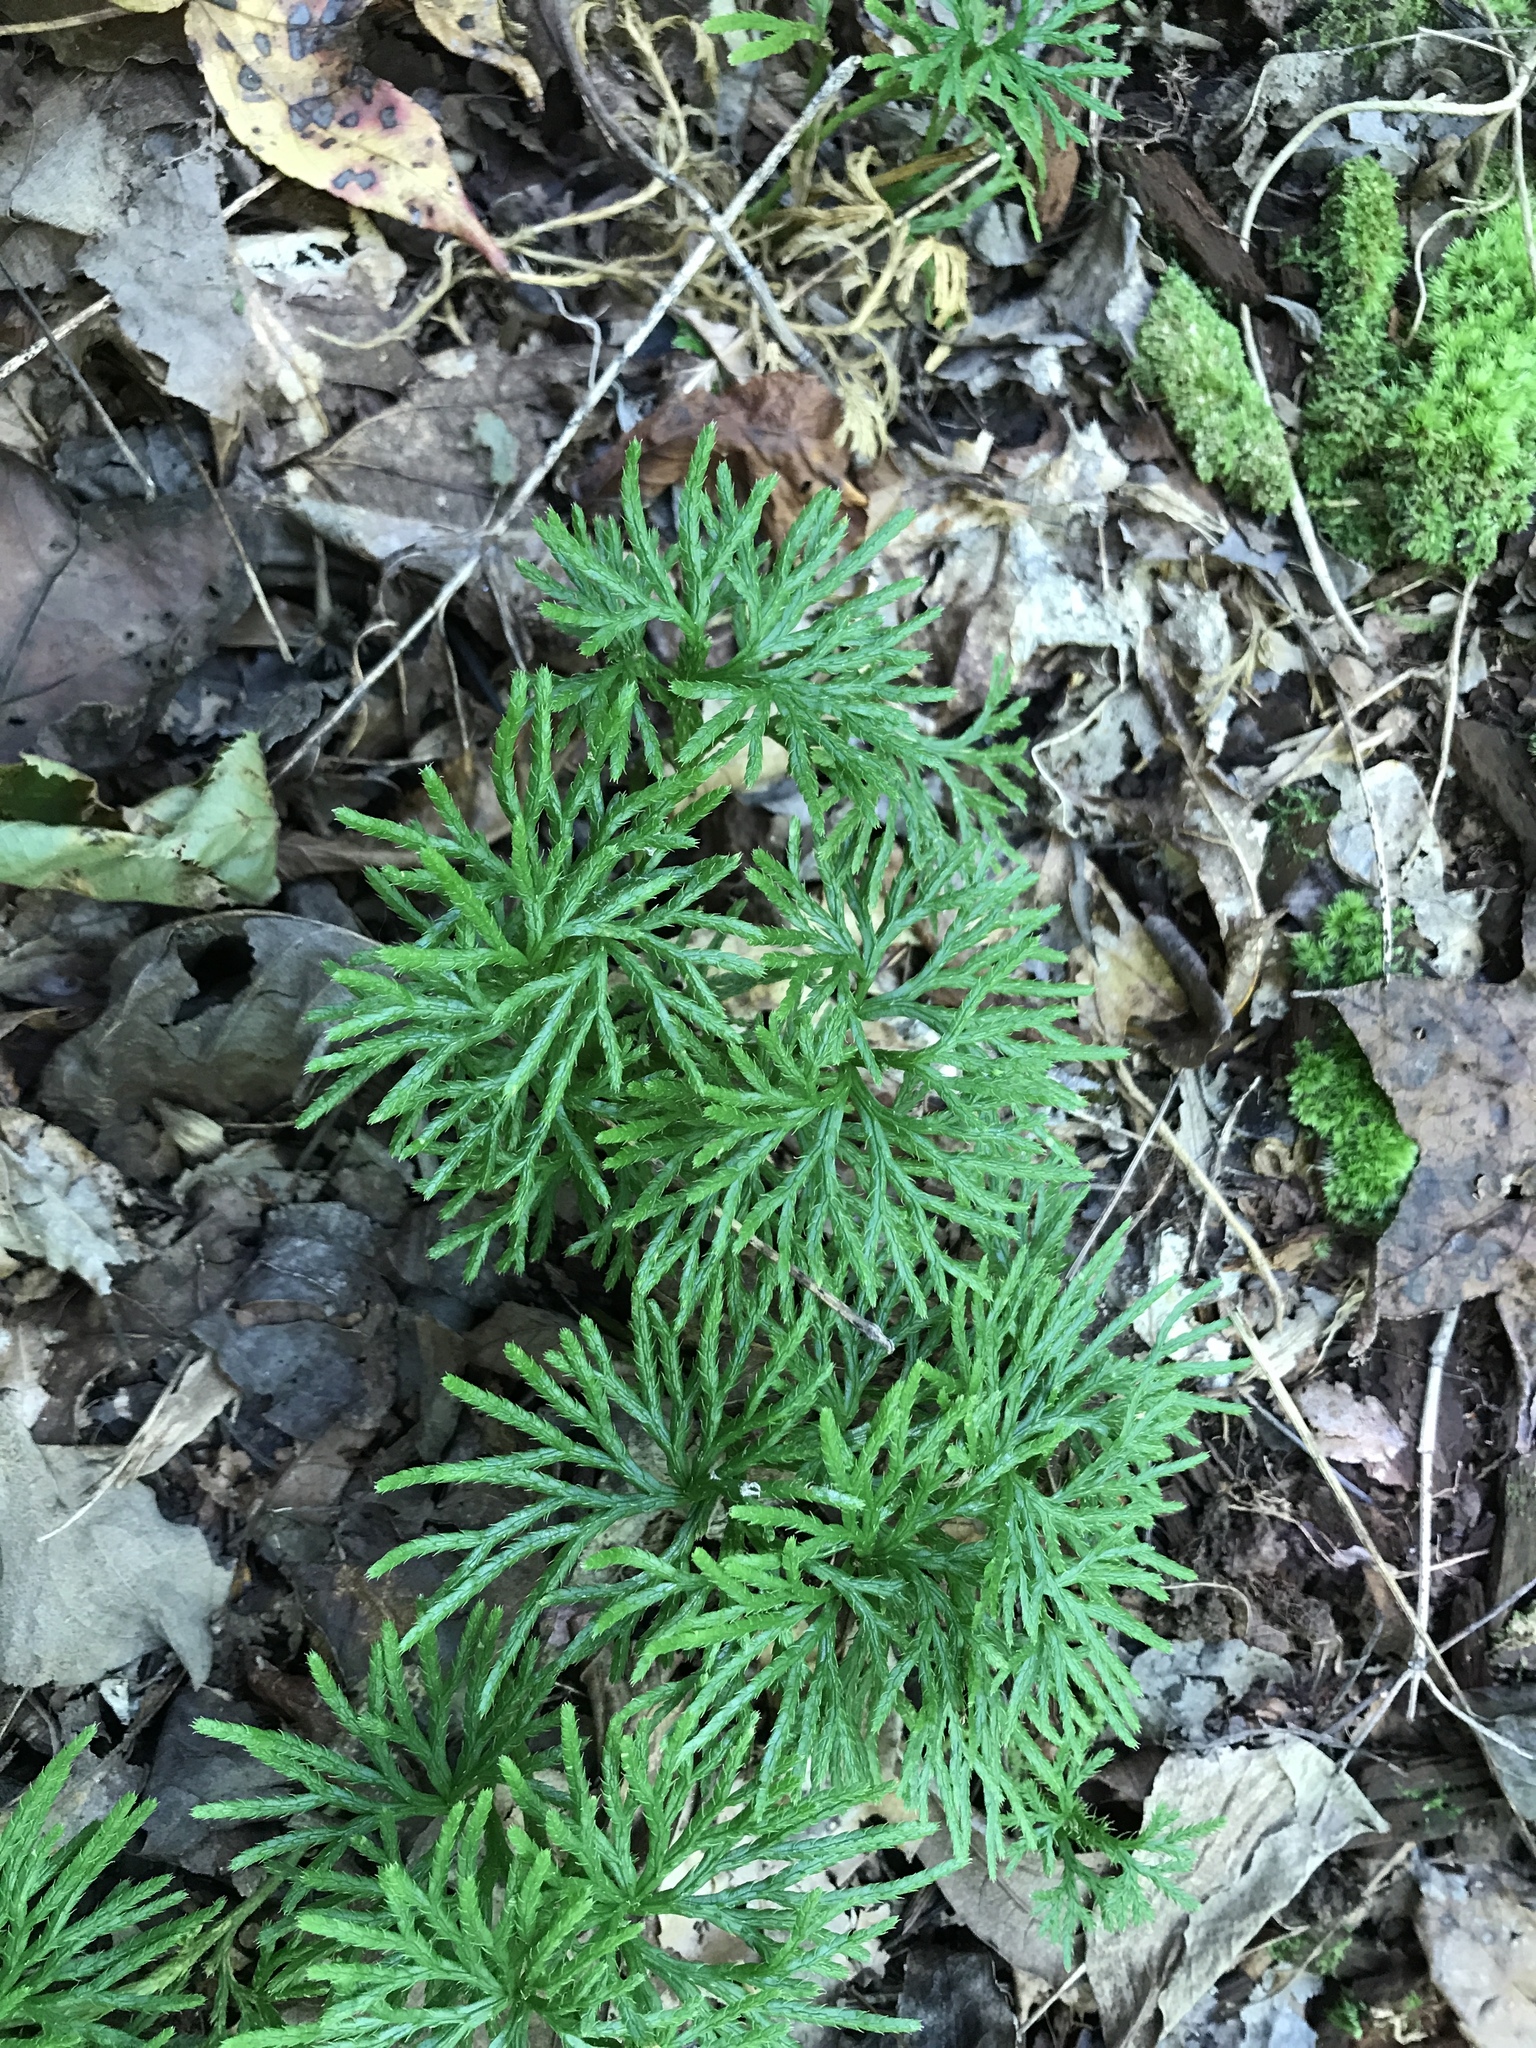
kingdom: Plantae
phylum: Tracheophyta
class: Lycopodiopsida
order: Lycopodiales
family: Lycopodiaceae
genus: Diphasiastrum
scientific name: Diphasiastrum digitatum
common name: Southern running-pine
